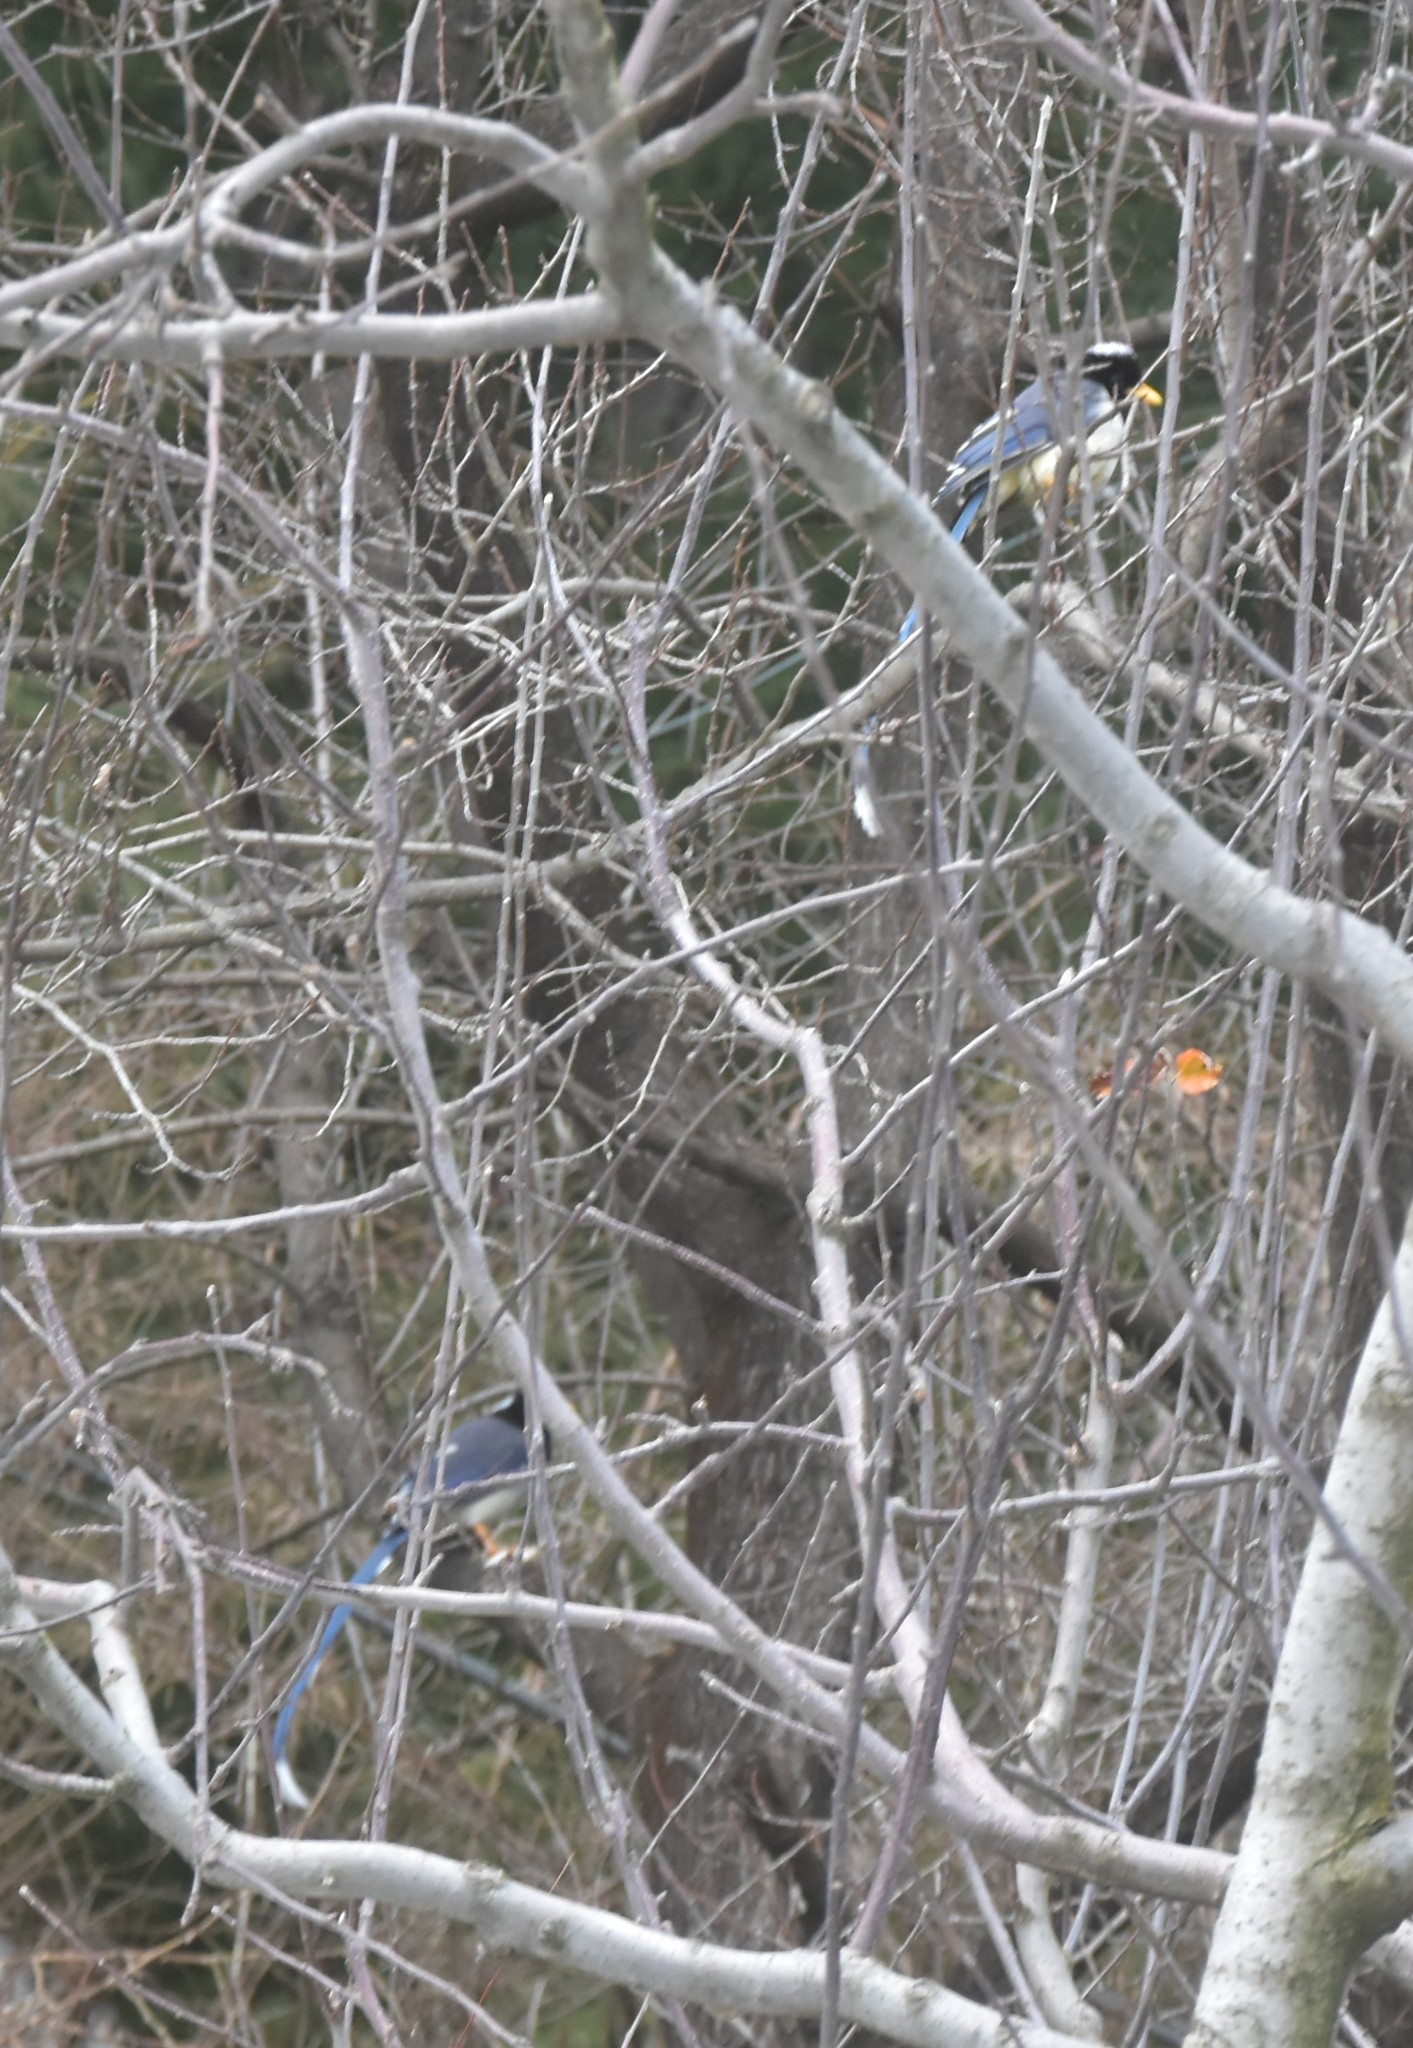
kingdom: Animalia
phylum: Chordata
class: Aves
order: Passeriformes
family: Corvidae
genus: Urocissa
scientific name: Urocissa flavirostris
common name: Yellow-billed blue magpie
